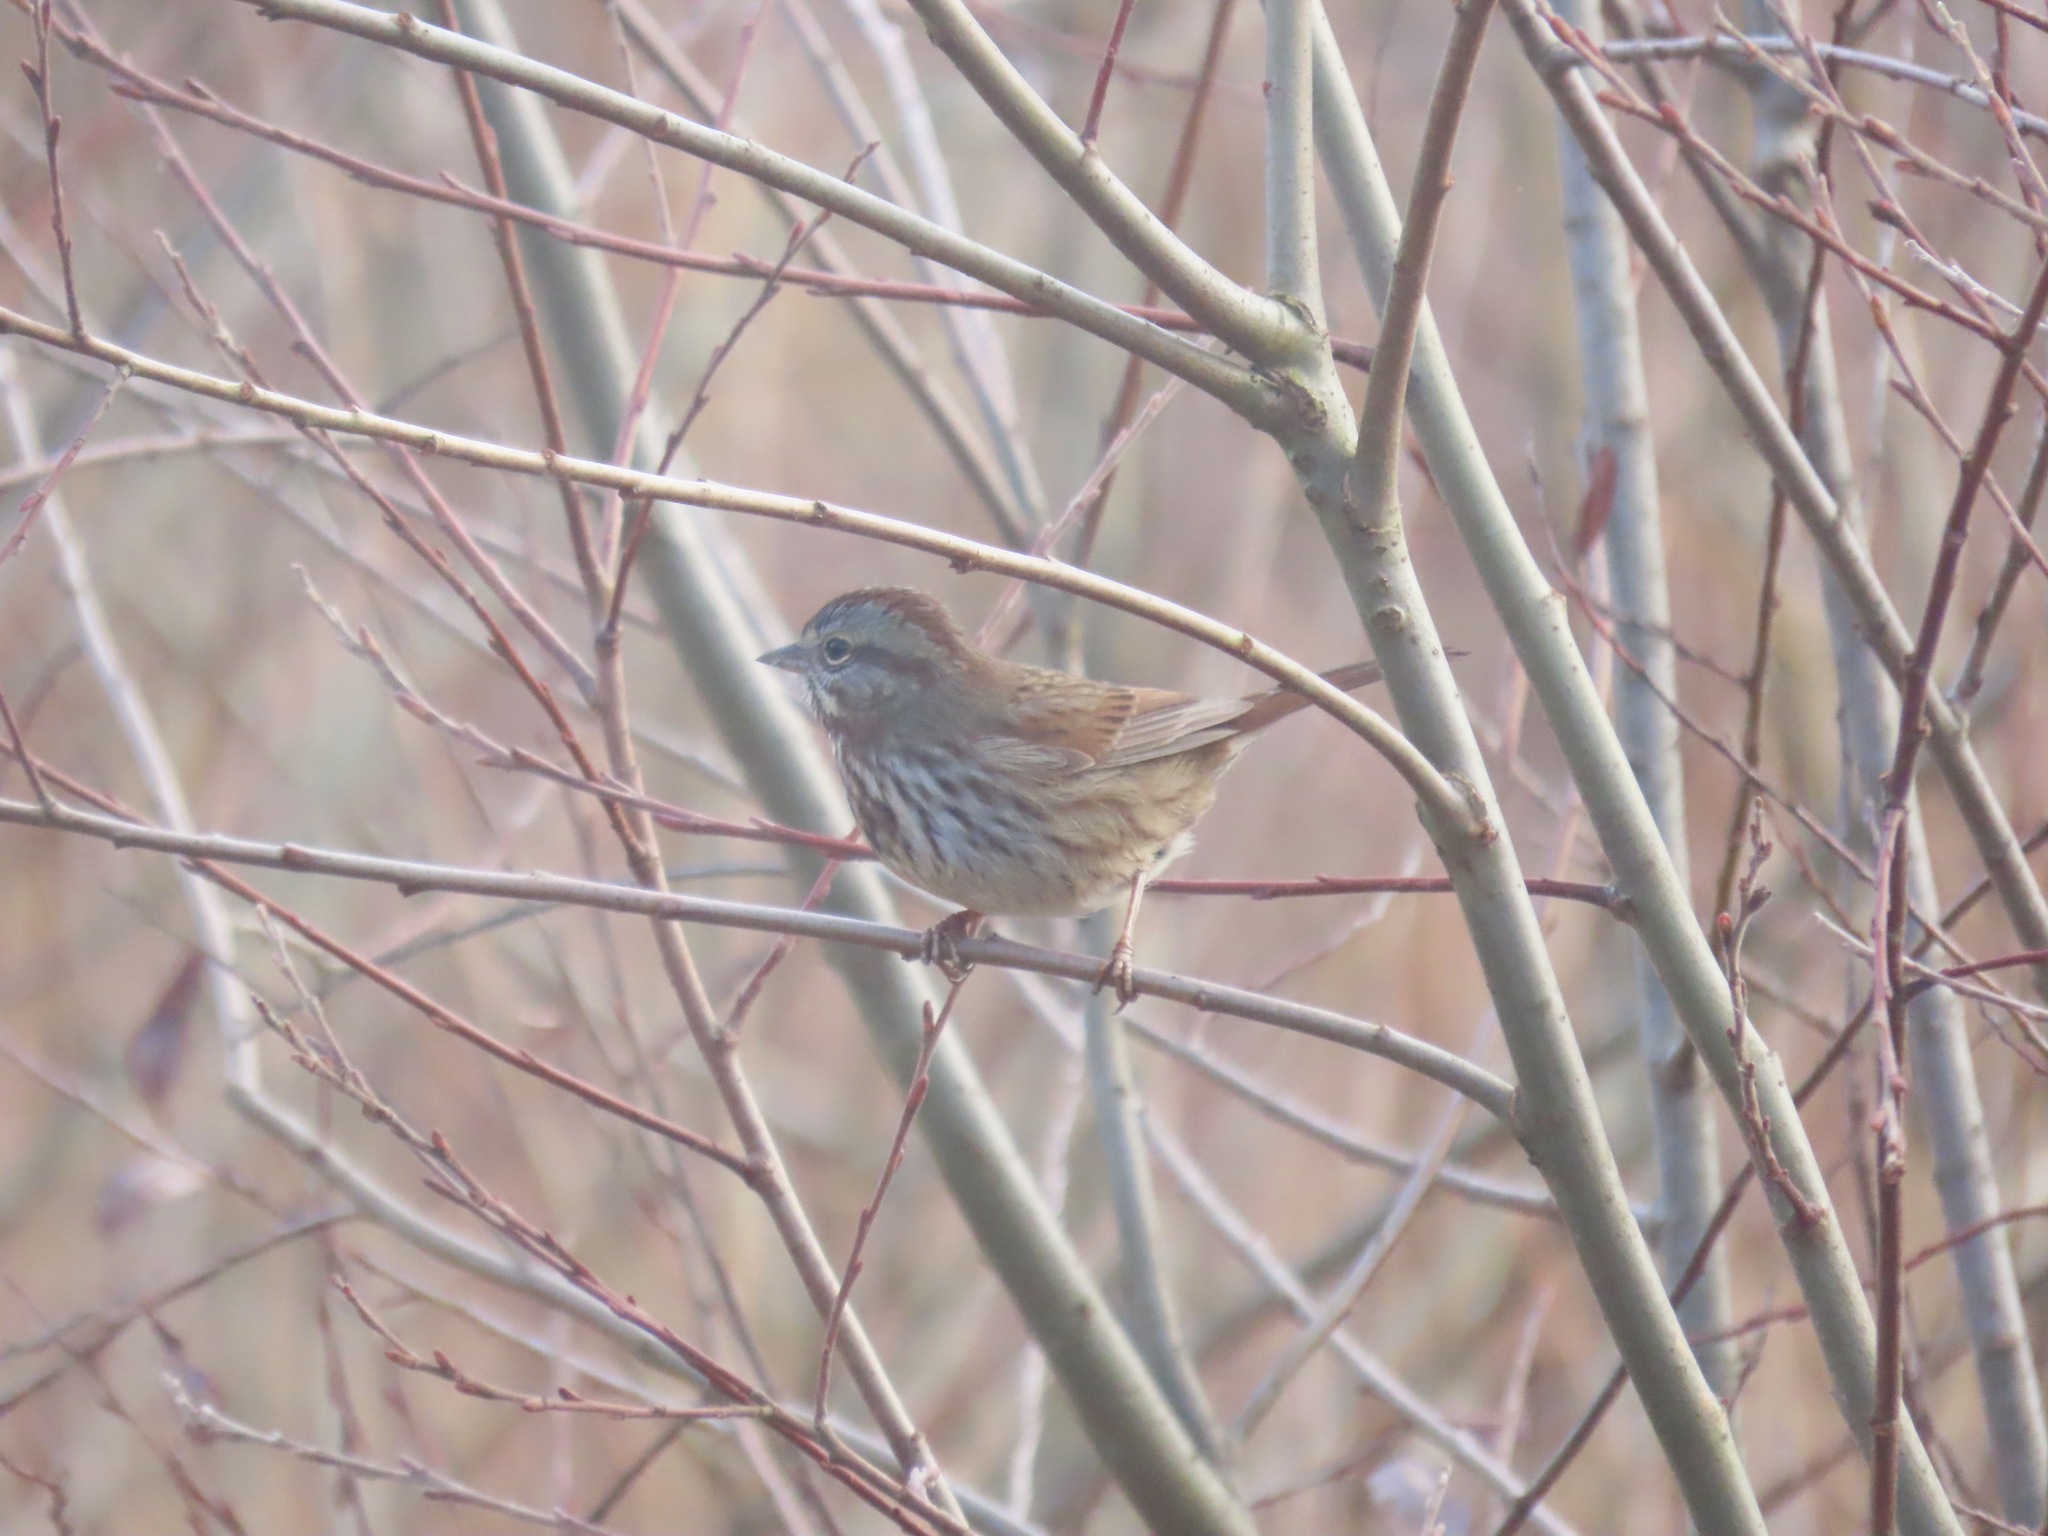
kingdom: Animalia
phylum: Chordata
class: Aves
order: Passeriformes
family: Passerellidae
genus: Melospiza
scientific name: Melospiza melodia
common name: Song sparrow
